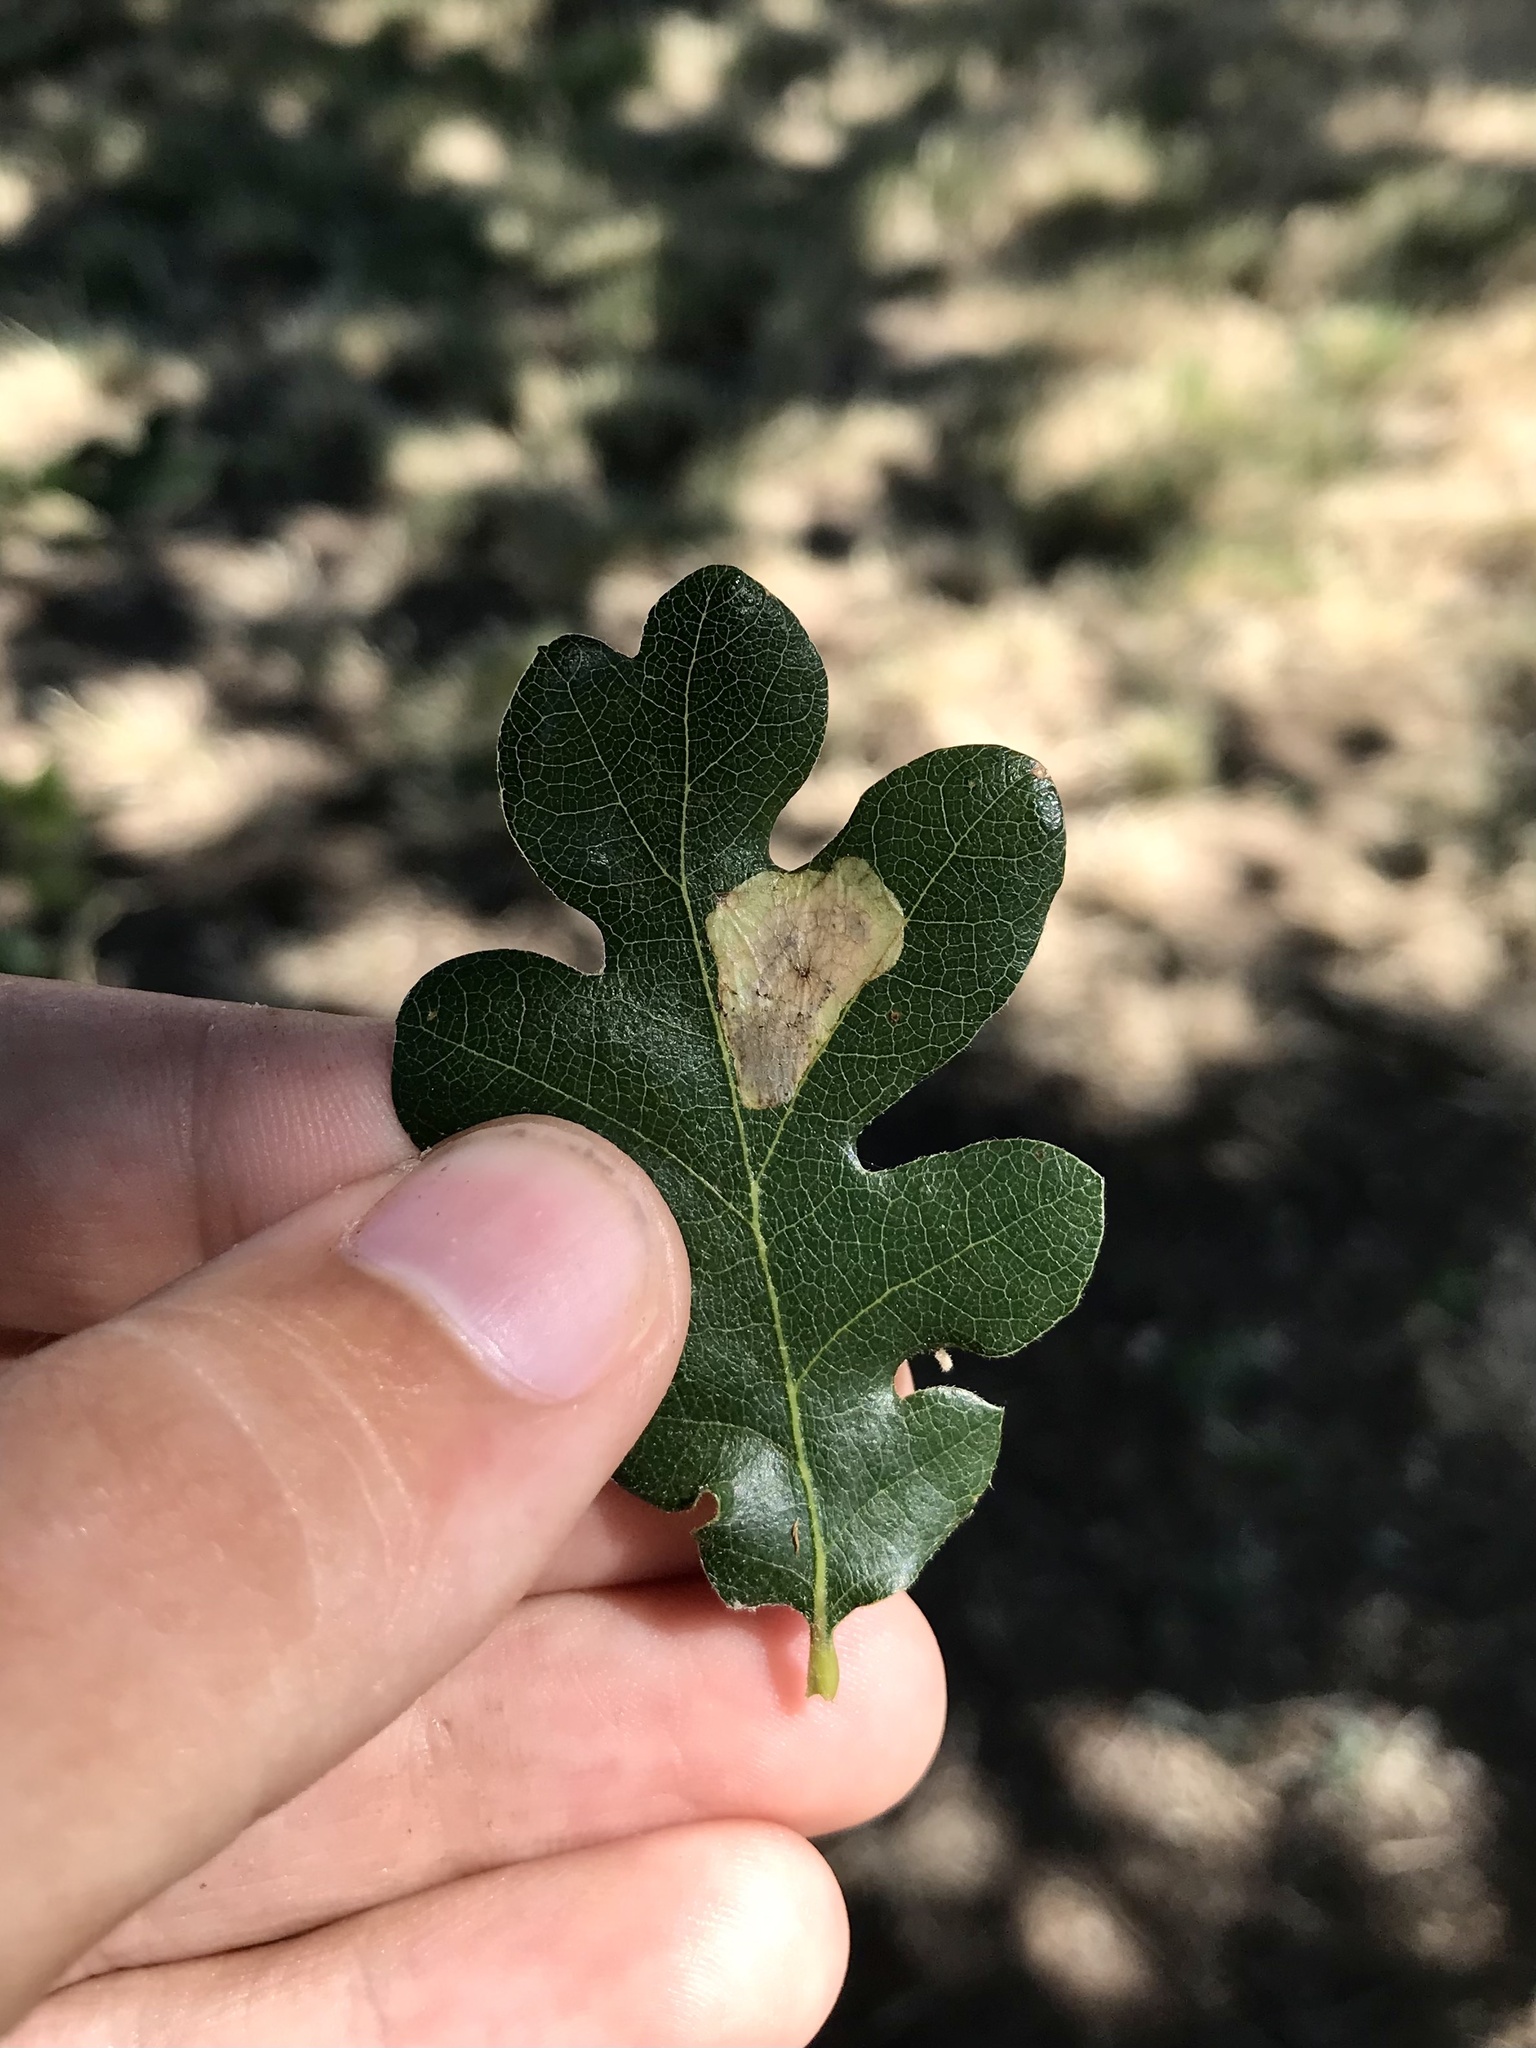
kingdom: Animalia
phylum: Arthropoda
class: Insecta
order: Hymenoptera
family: Tenthredinidae
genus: Profenusa
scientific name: Profenusa
